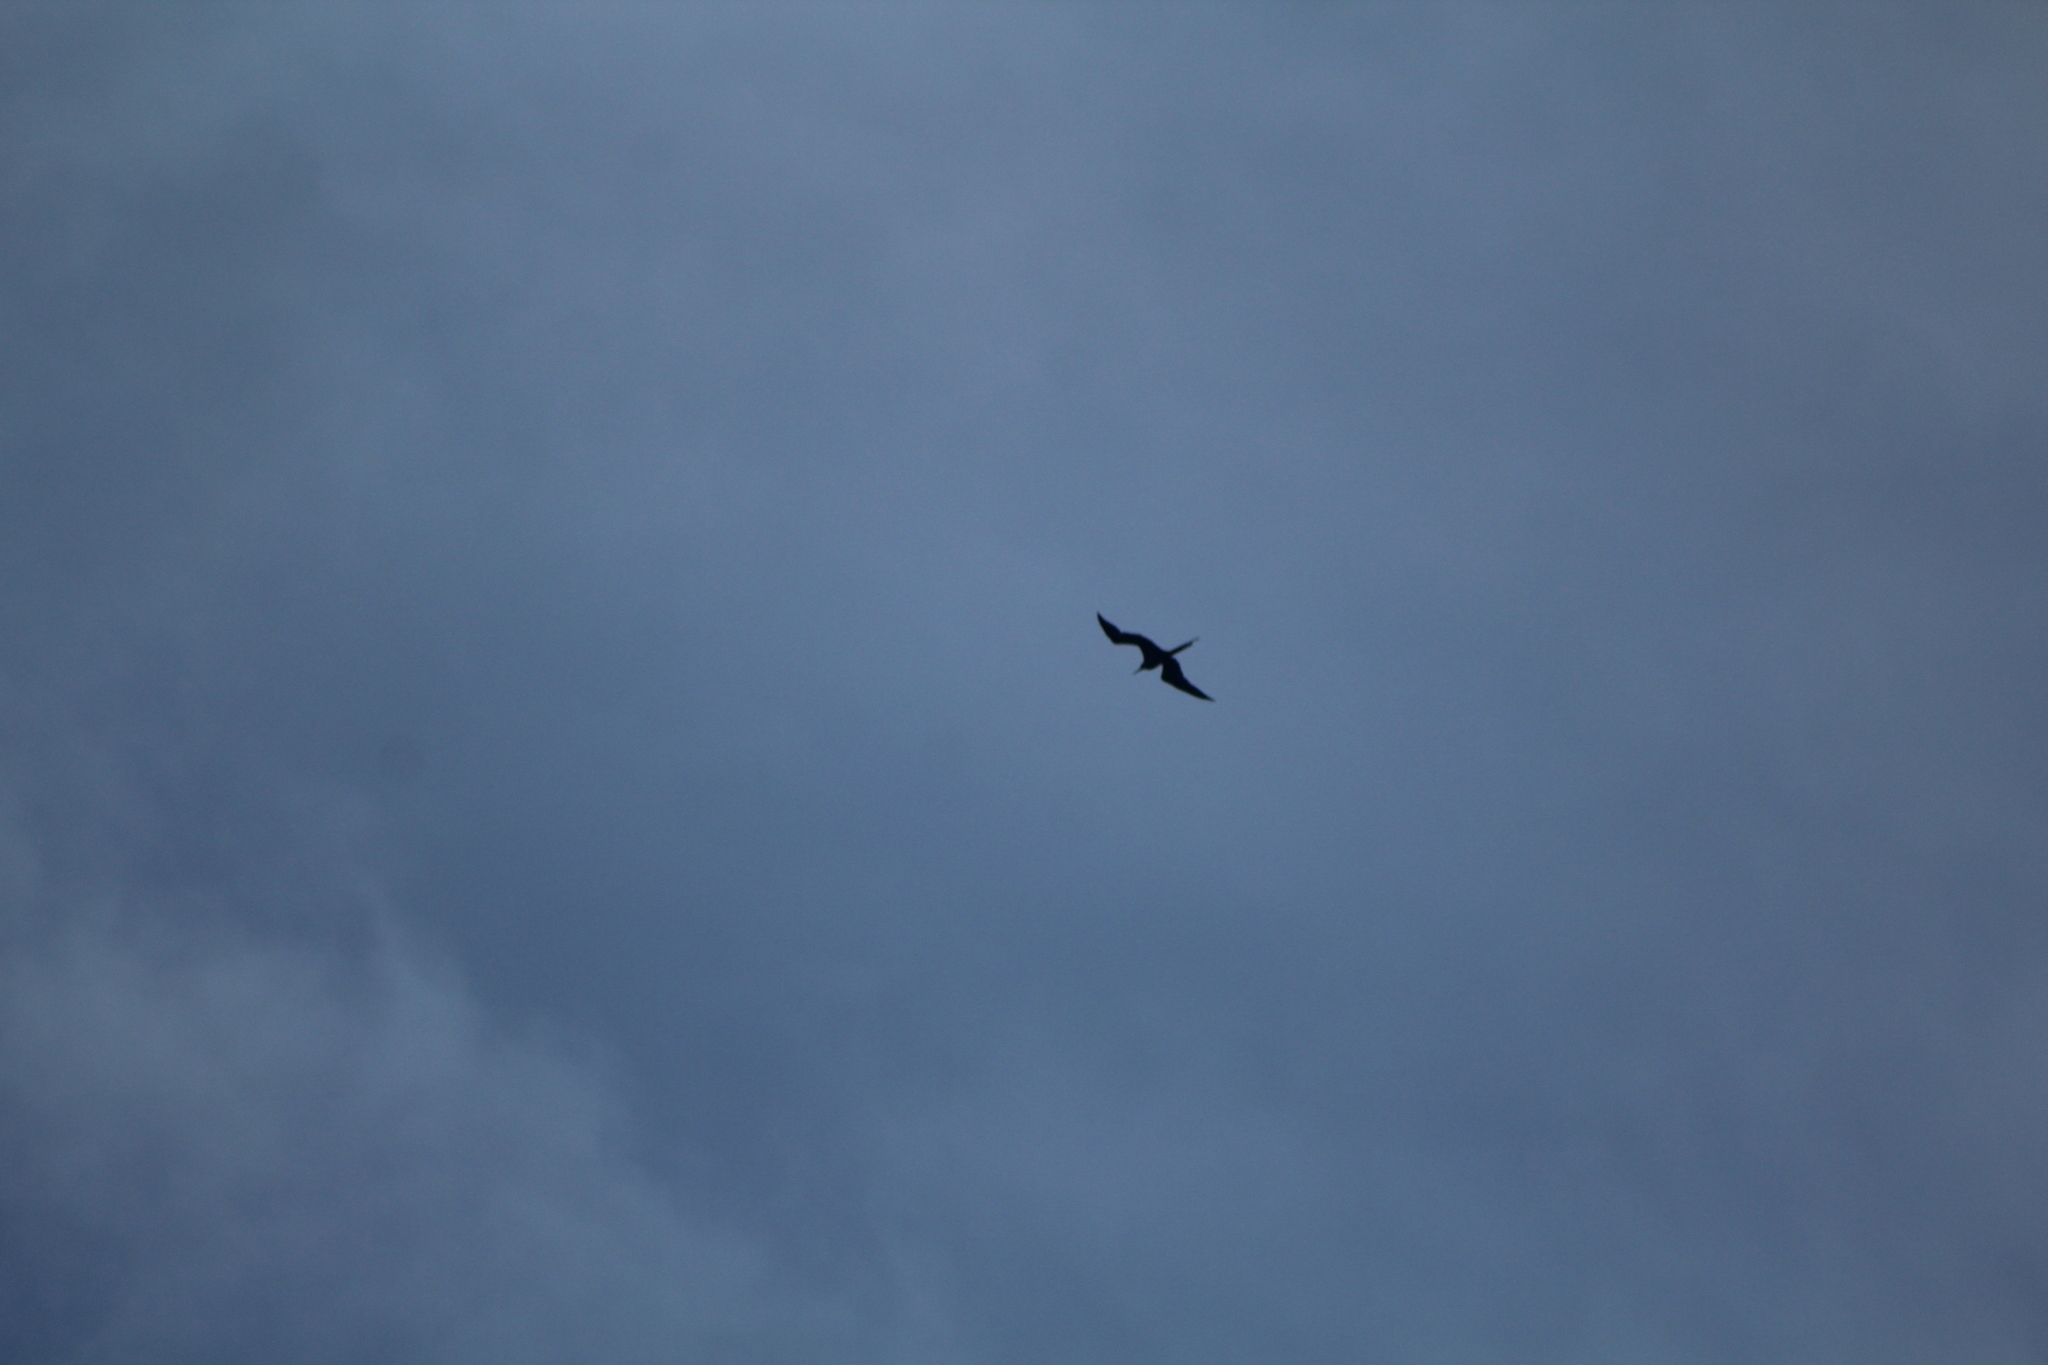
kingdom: Animalia
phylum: Chordata
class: Aves
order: Suliformes
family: Fregatidae
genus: Fregata
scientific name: Fregata magnificens
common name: Magnificent frigatebird
